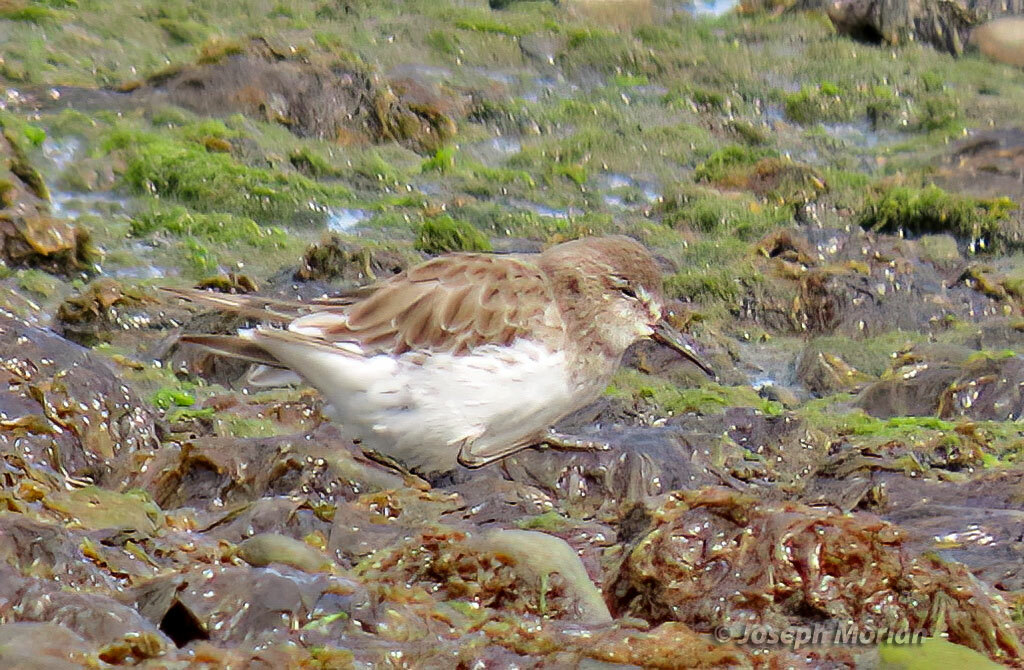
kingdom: Animalia
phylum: Chordata
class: Aves
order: Charadriiformes
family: Scolopacidae
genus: Calidris
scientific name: Calidris fuscicollis
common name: White-rumped sandpiper
